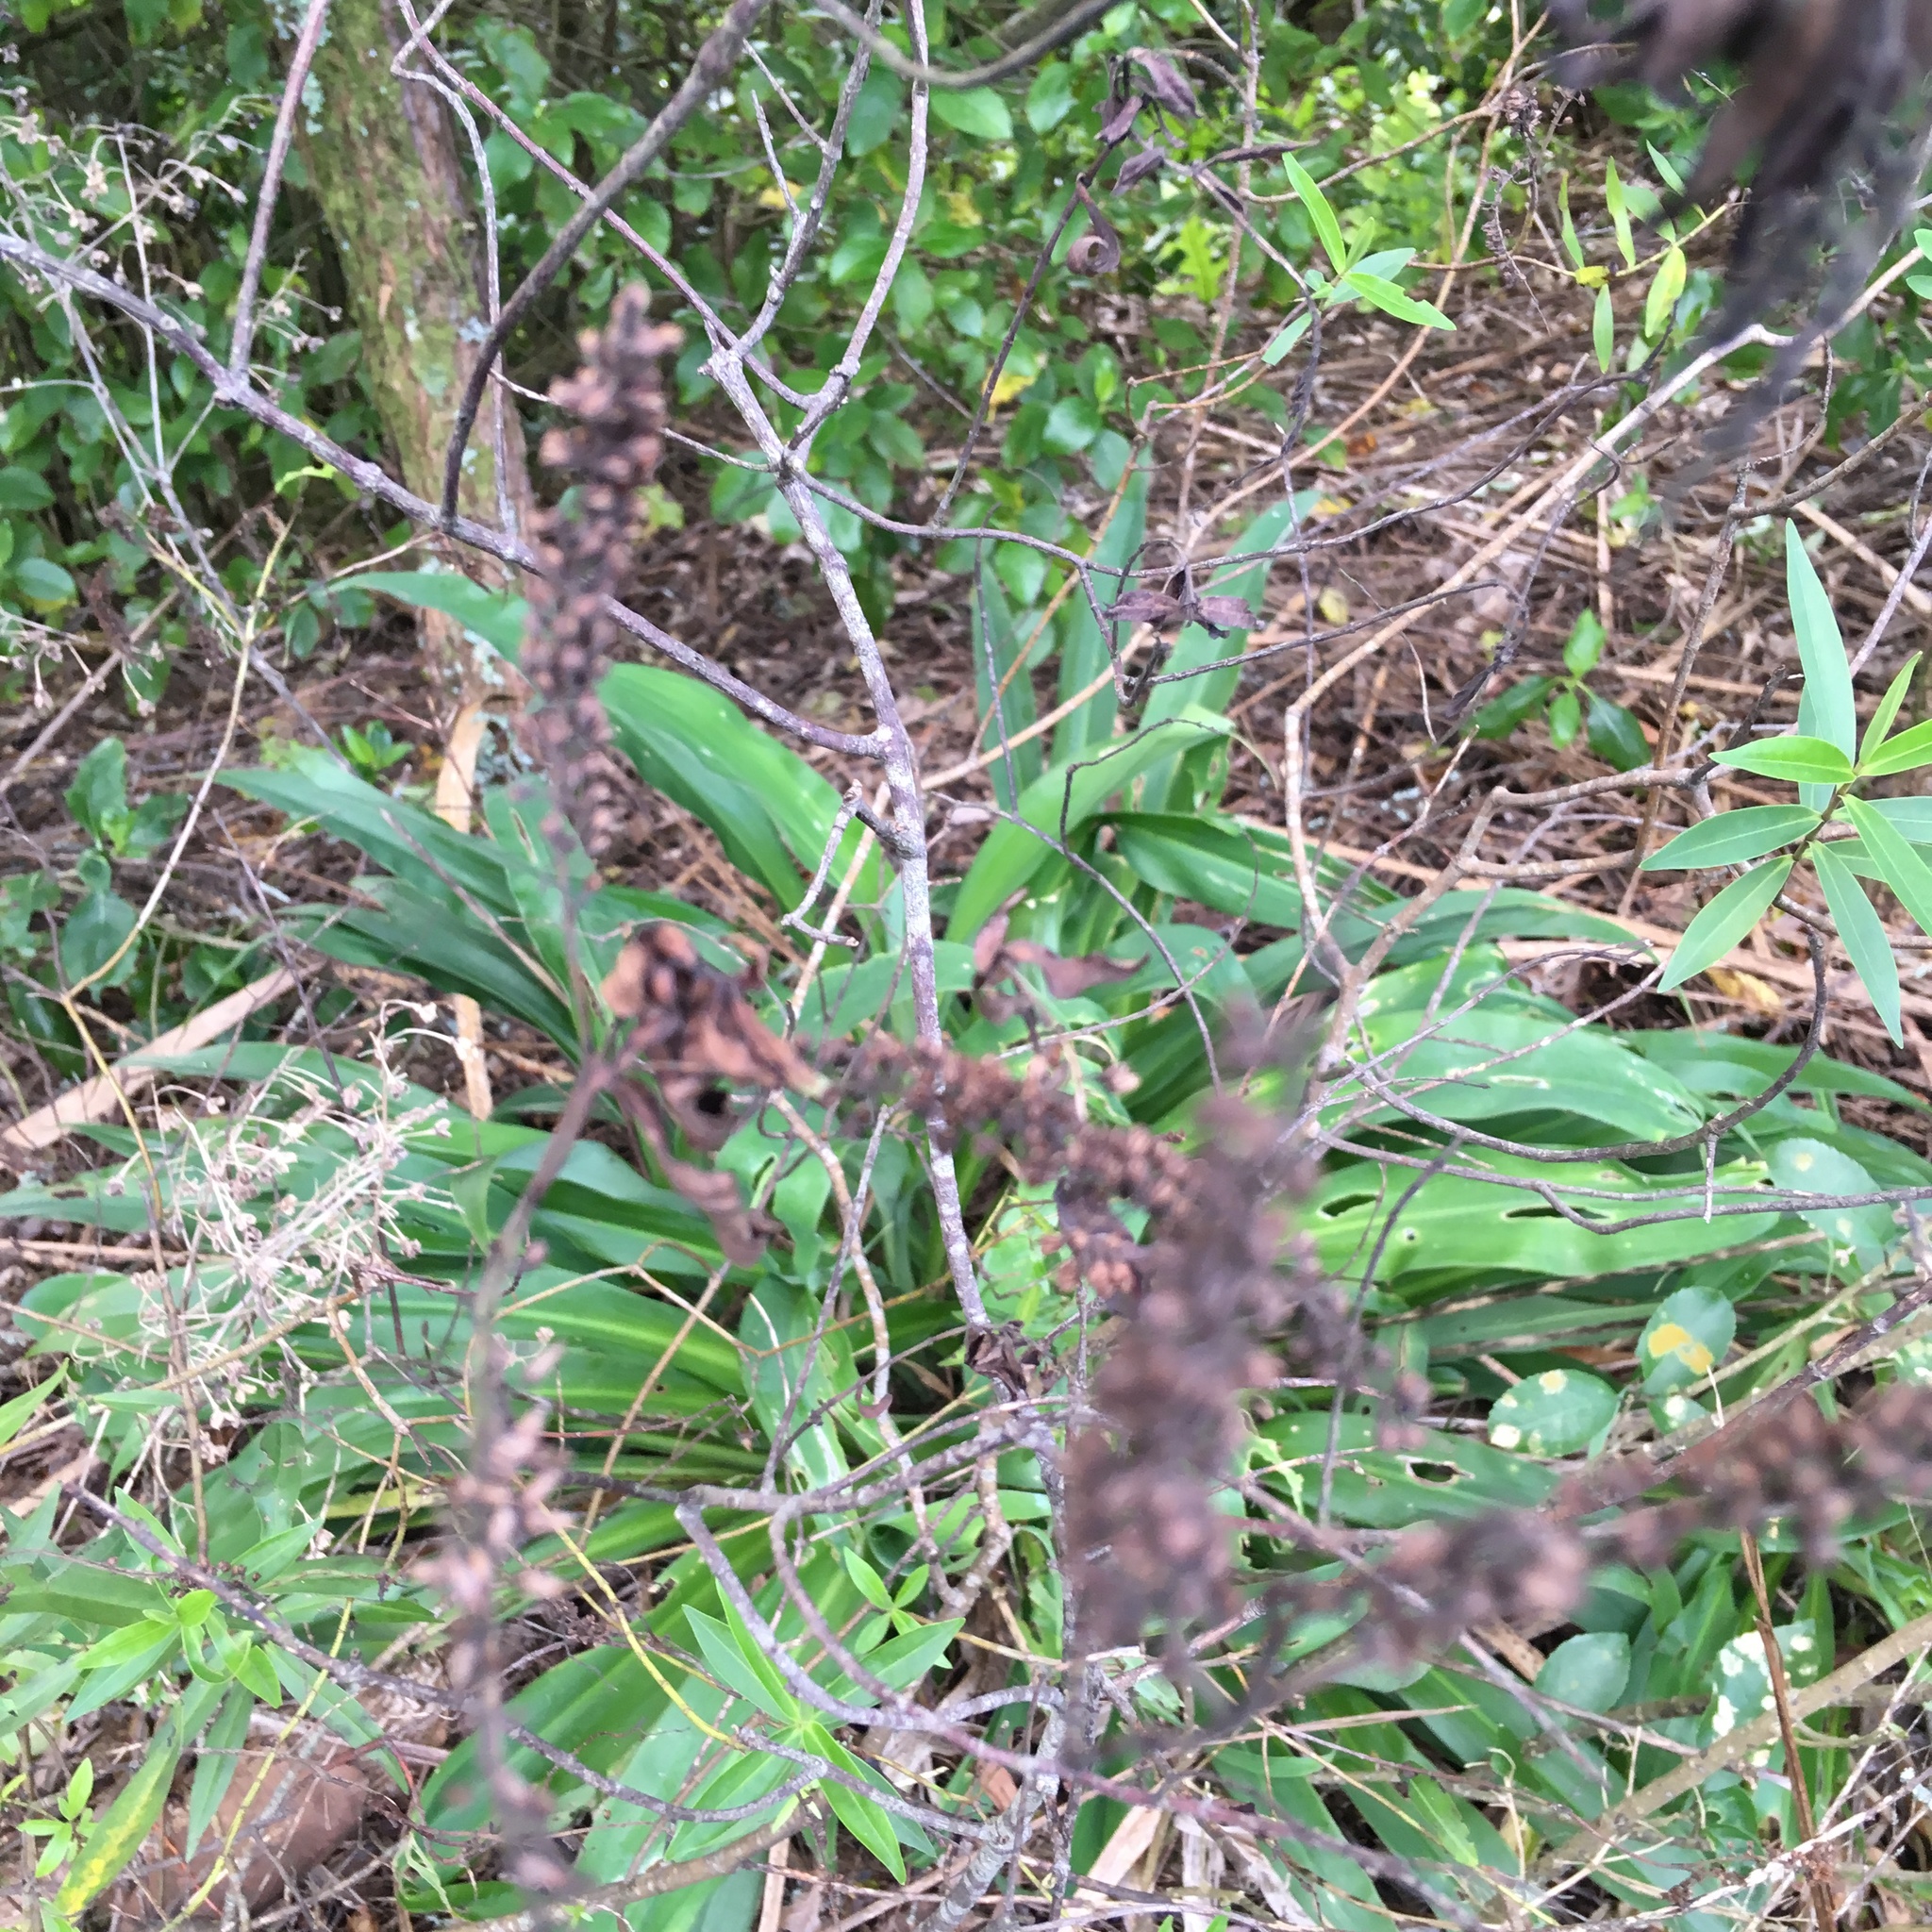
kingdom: Plantae
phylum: Tracheophyta
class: Liliopsida
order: Asparagales
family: Asparagaceae
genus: Arthropodium
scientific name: Arthropodium cirratum
